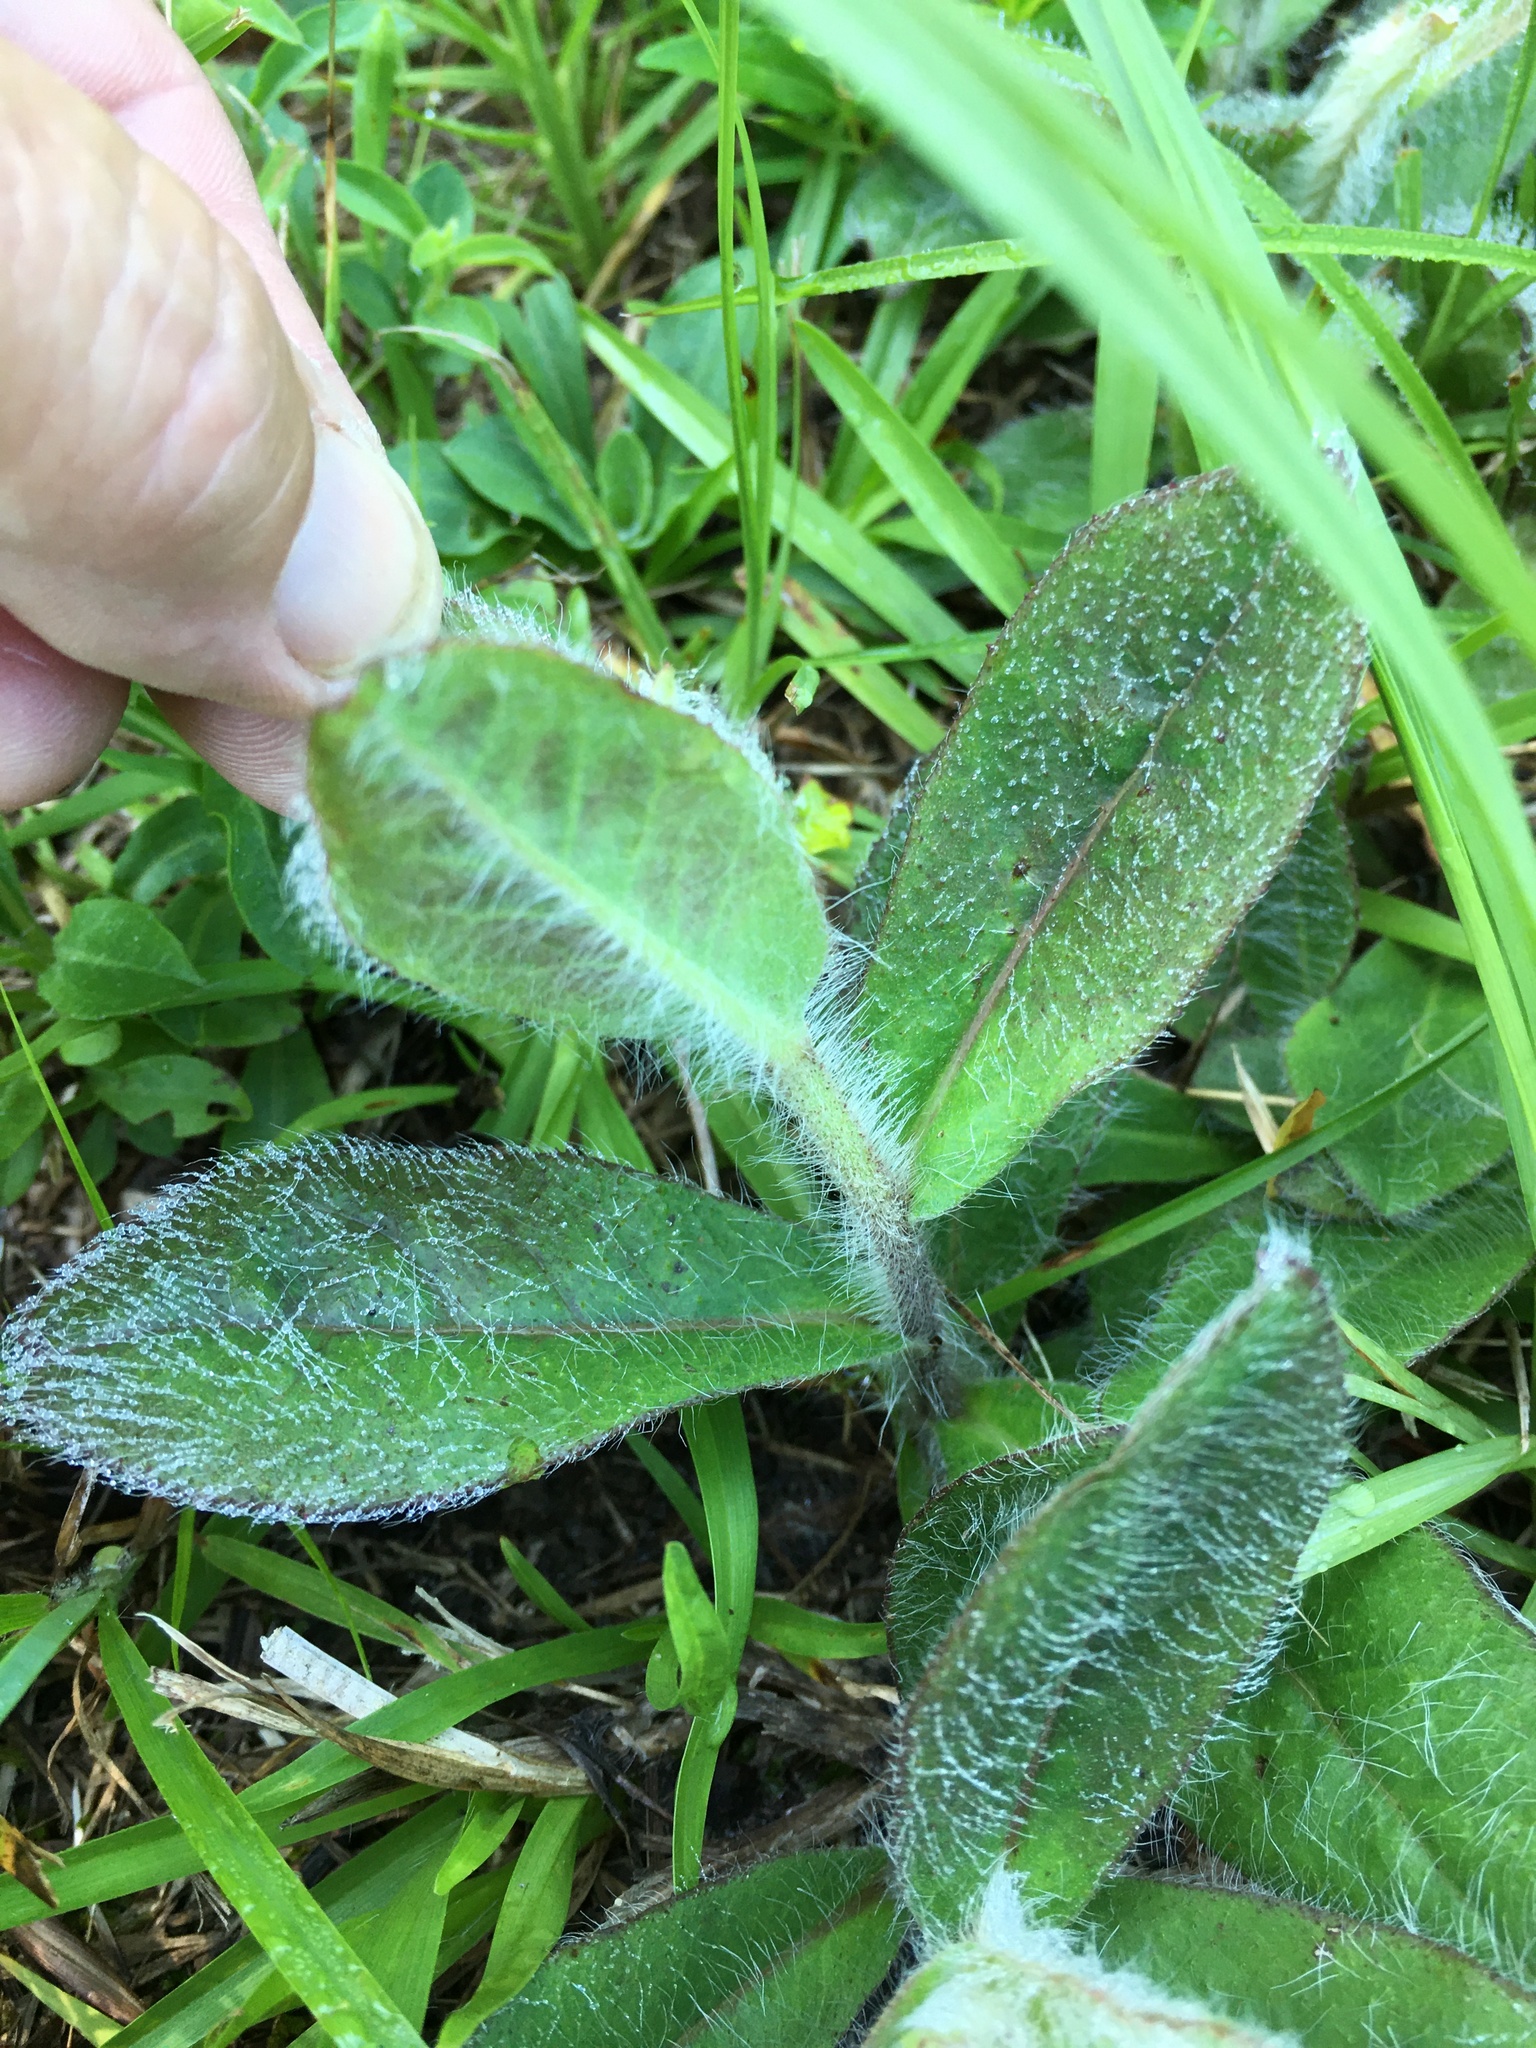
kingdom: Plantae
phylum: Tracheophyta
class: Magnoliopsida
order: Asterales
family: Asteraceae
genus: Hieracium
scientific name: Hieracium gronovii
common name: Beaked hawkweed
